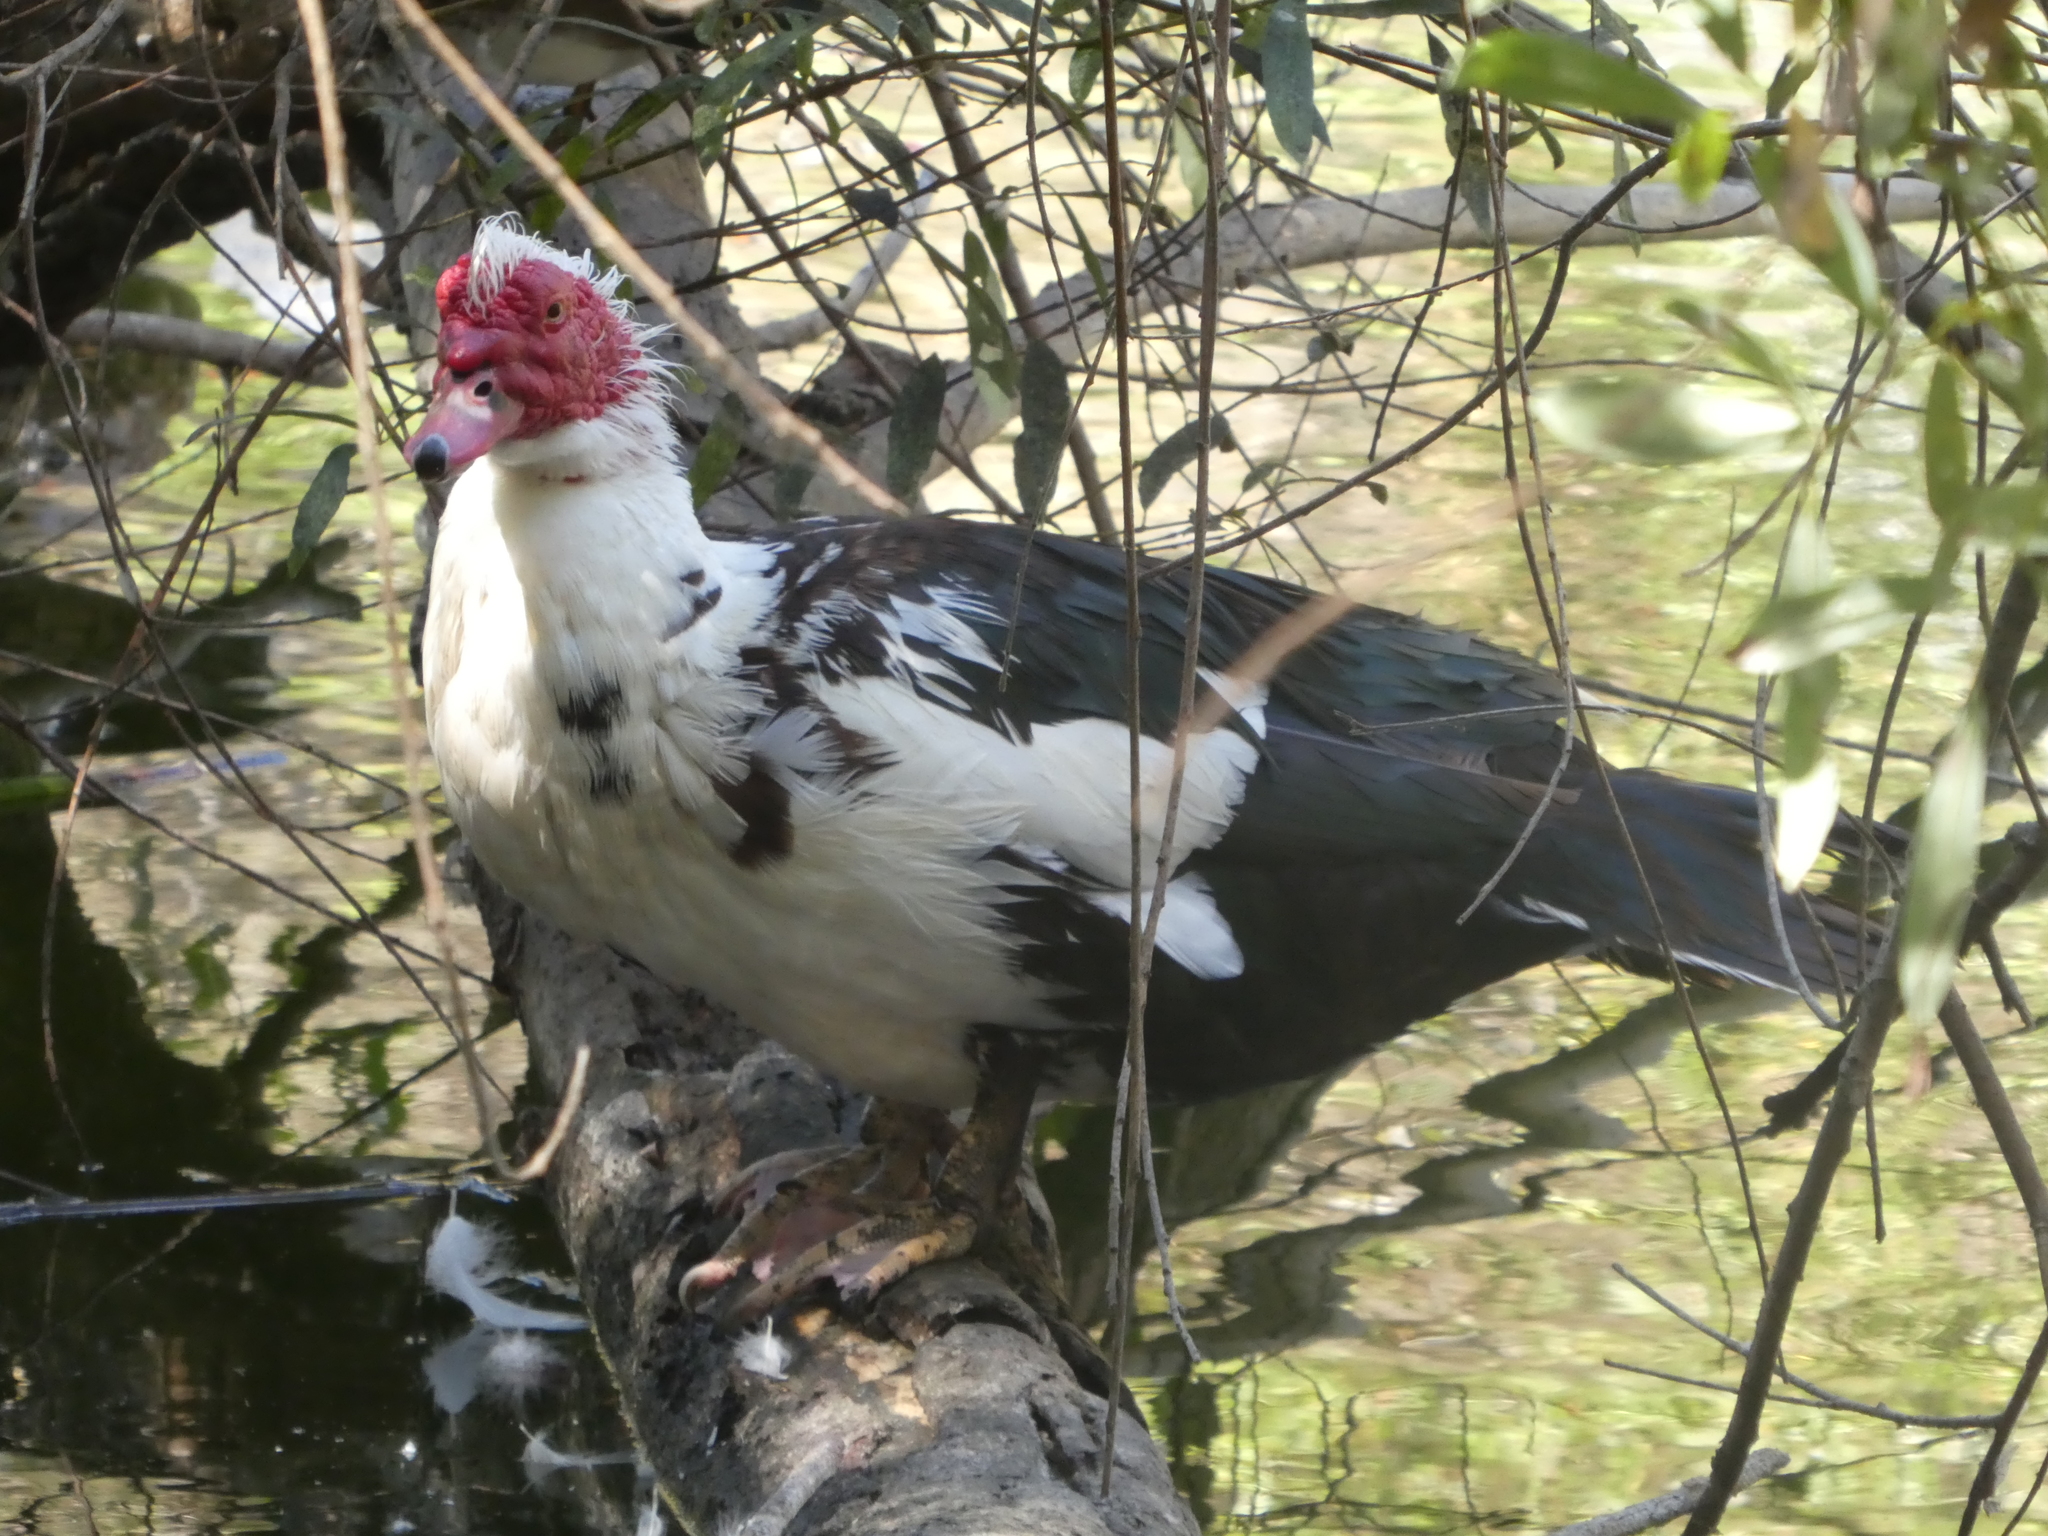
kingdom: Animalia
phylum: Chordata
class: Aves
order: Anseriformes
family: Anatidae
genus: Cairina
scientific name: Cairina moschata
